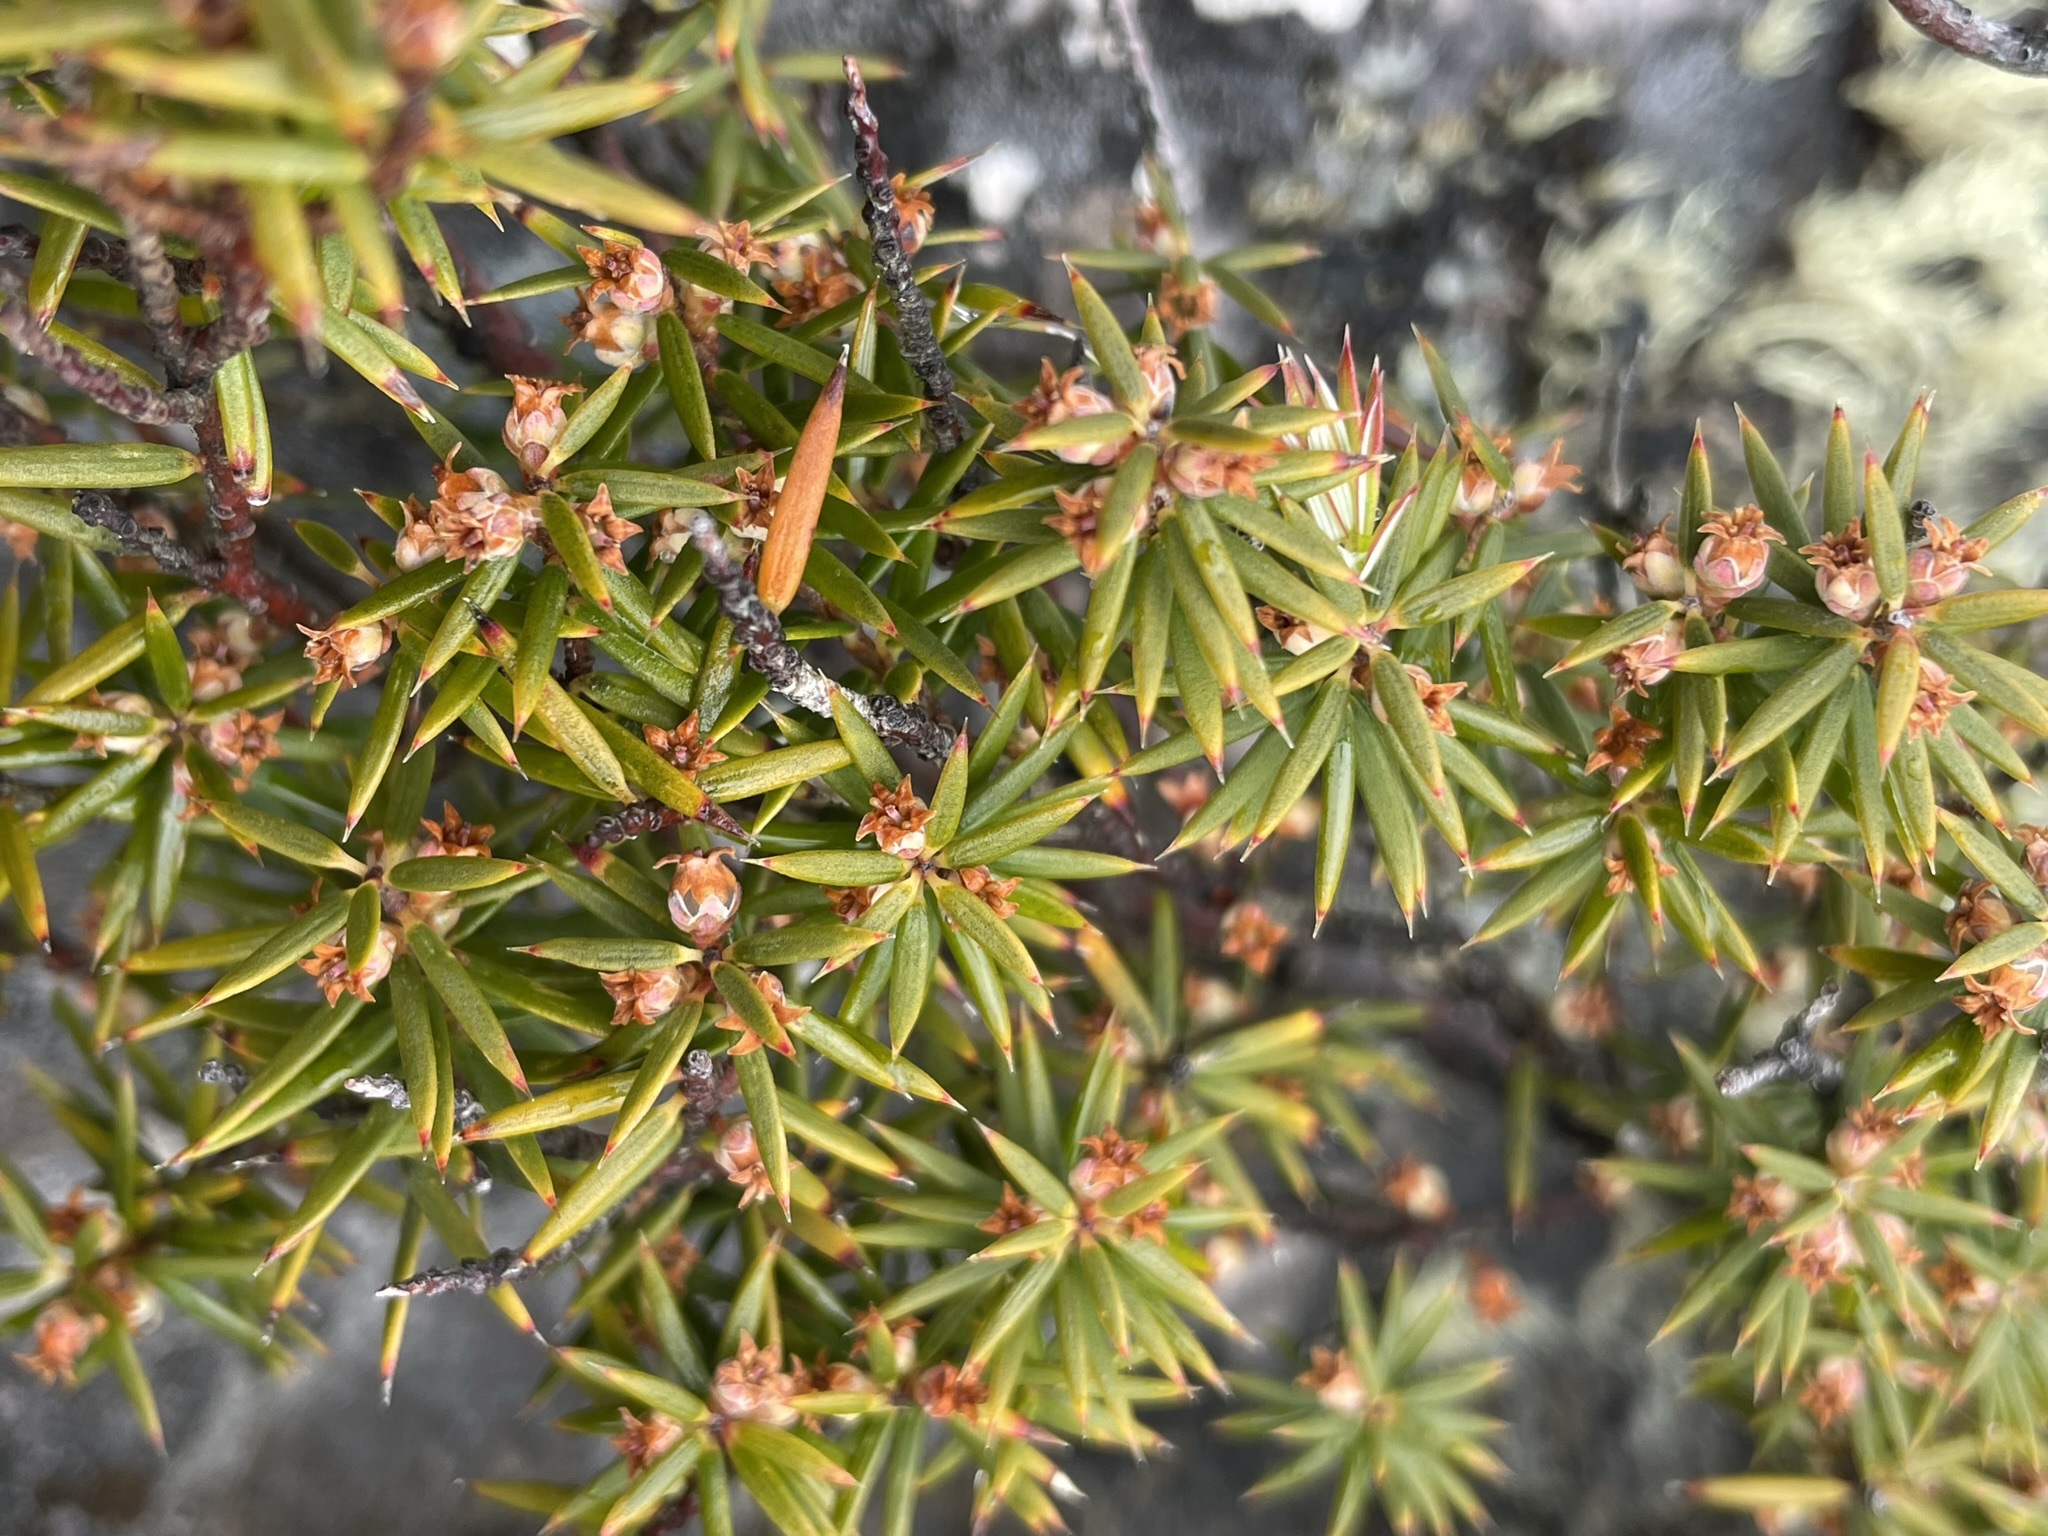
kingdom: Plantae
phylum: Tracheophyta
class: Magnoliopsida
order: Ericales
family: Ericaceae
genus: Leptecophylla
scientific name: Leptecophylla parvifolia
